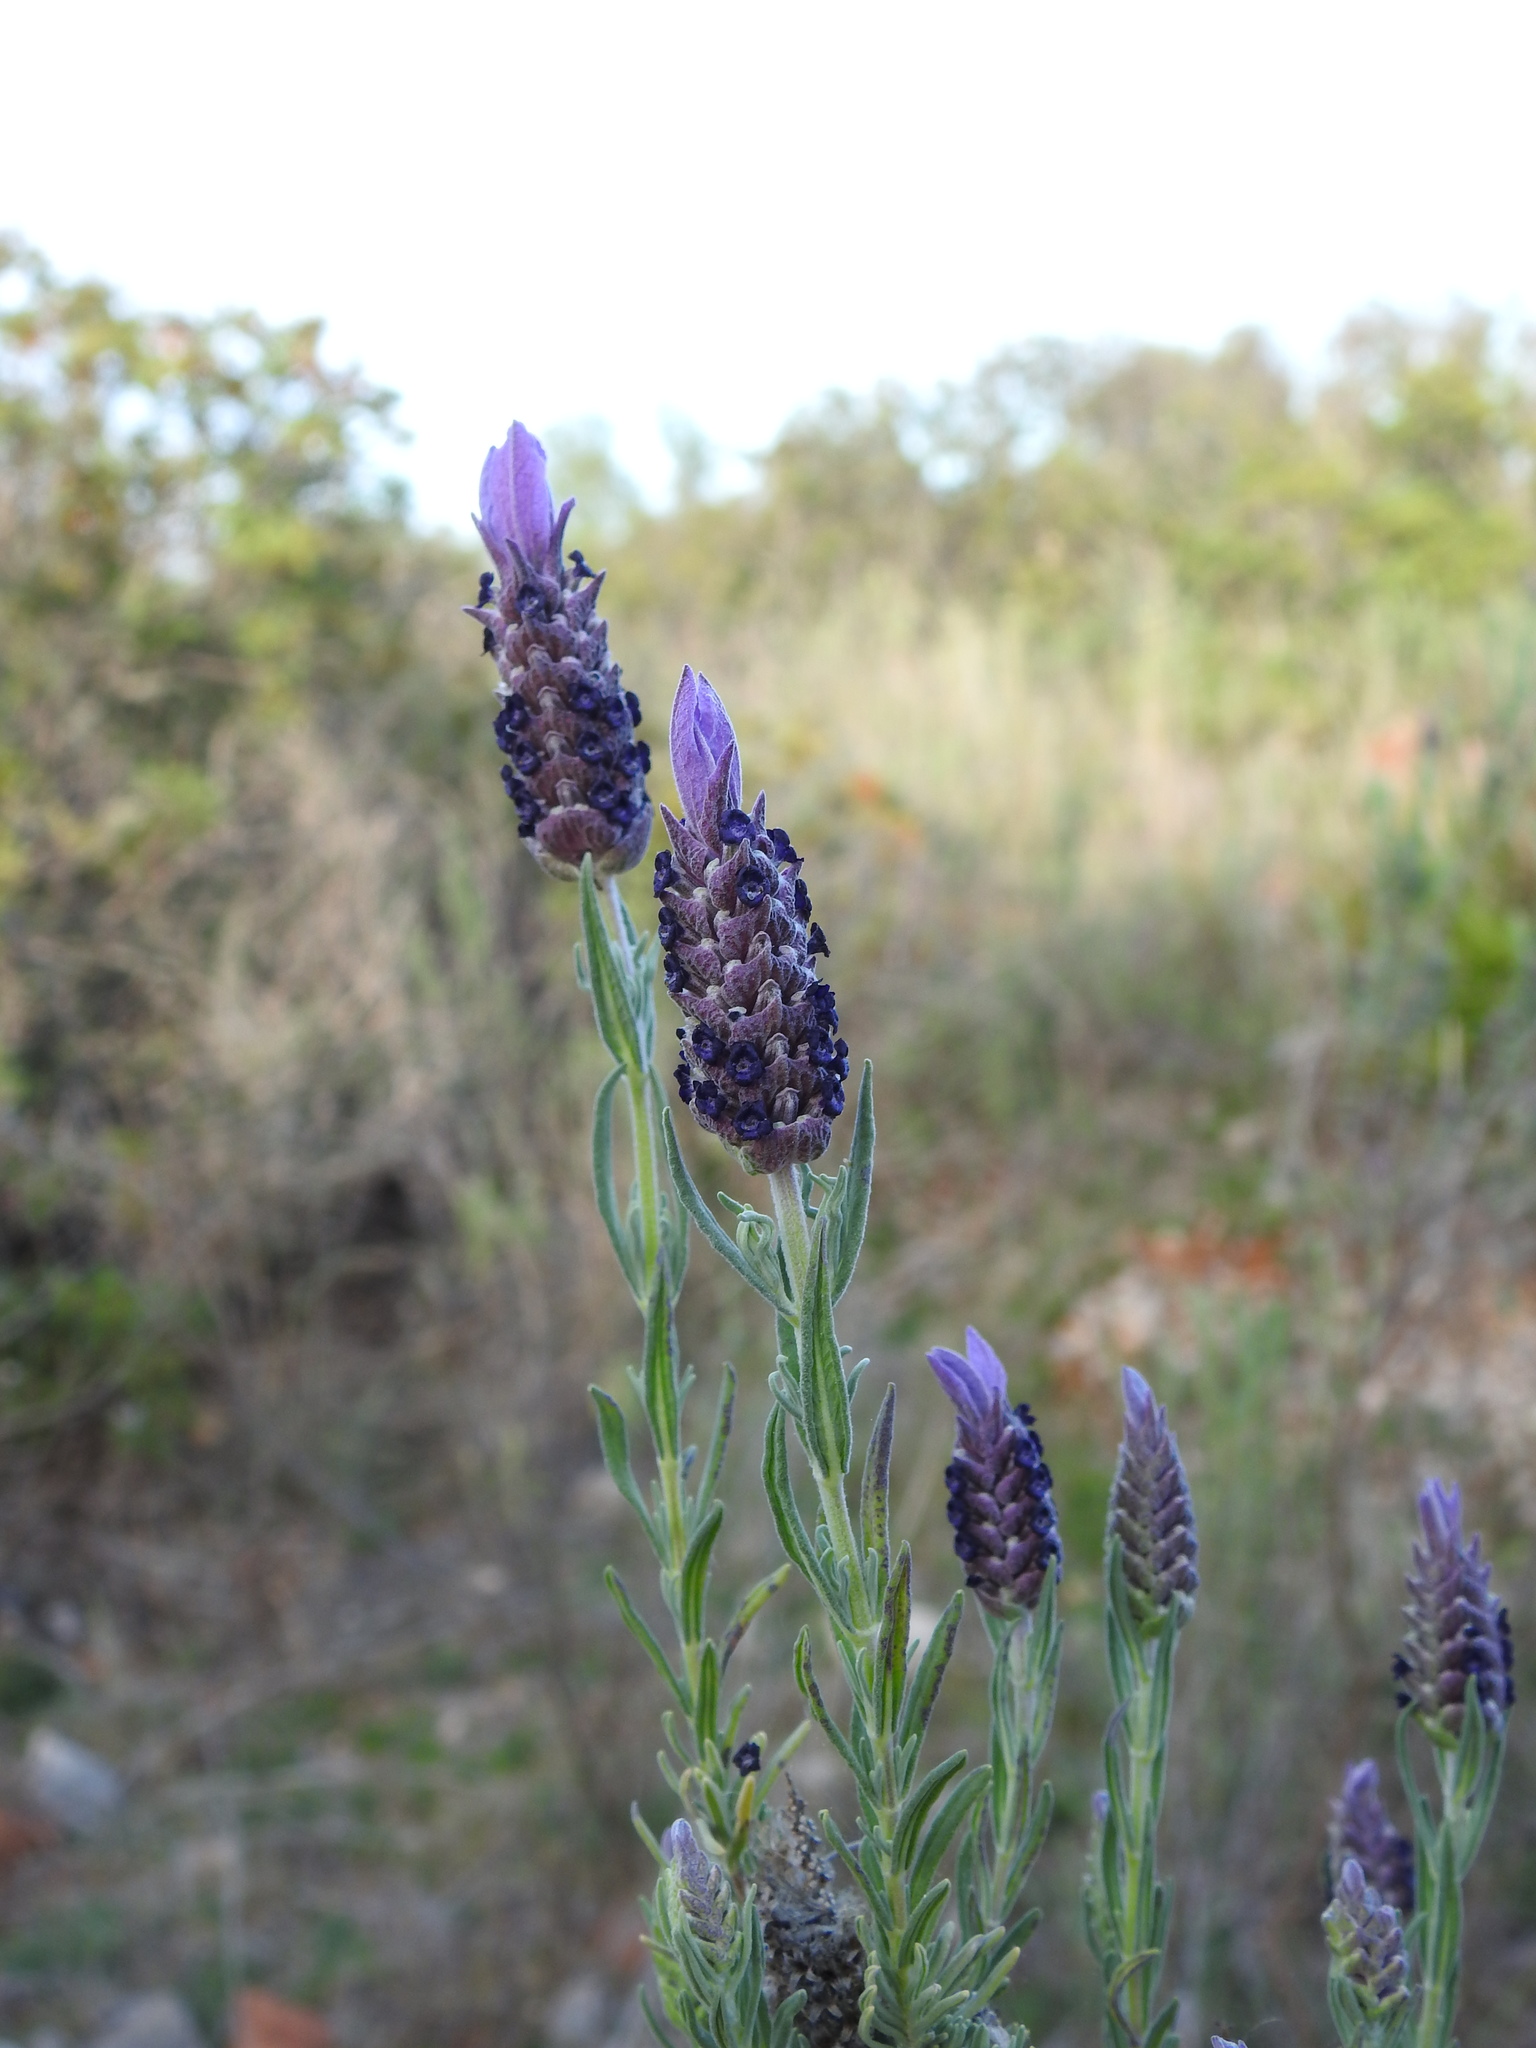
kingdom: Plantae
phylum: Tracheophyta
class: Magnoliopsida
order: Lamiales
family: Lamiaceae
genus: Lavandula
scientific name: Lavandula stoechas
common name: French lavender
